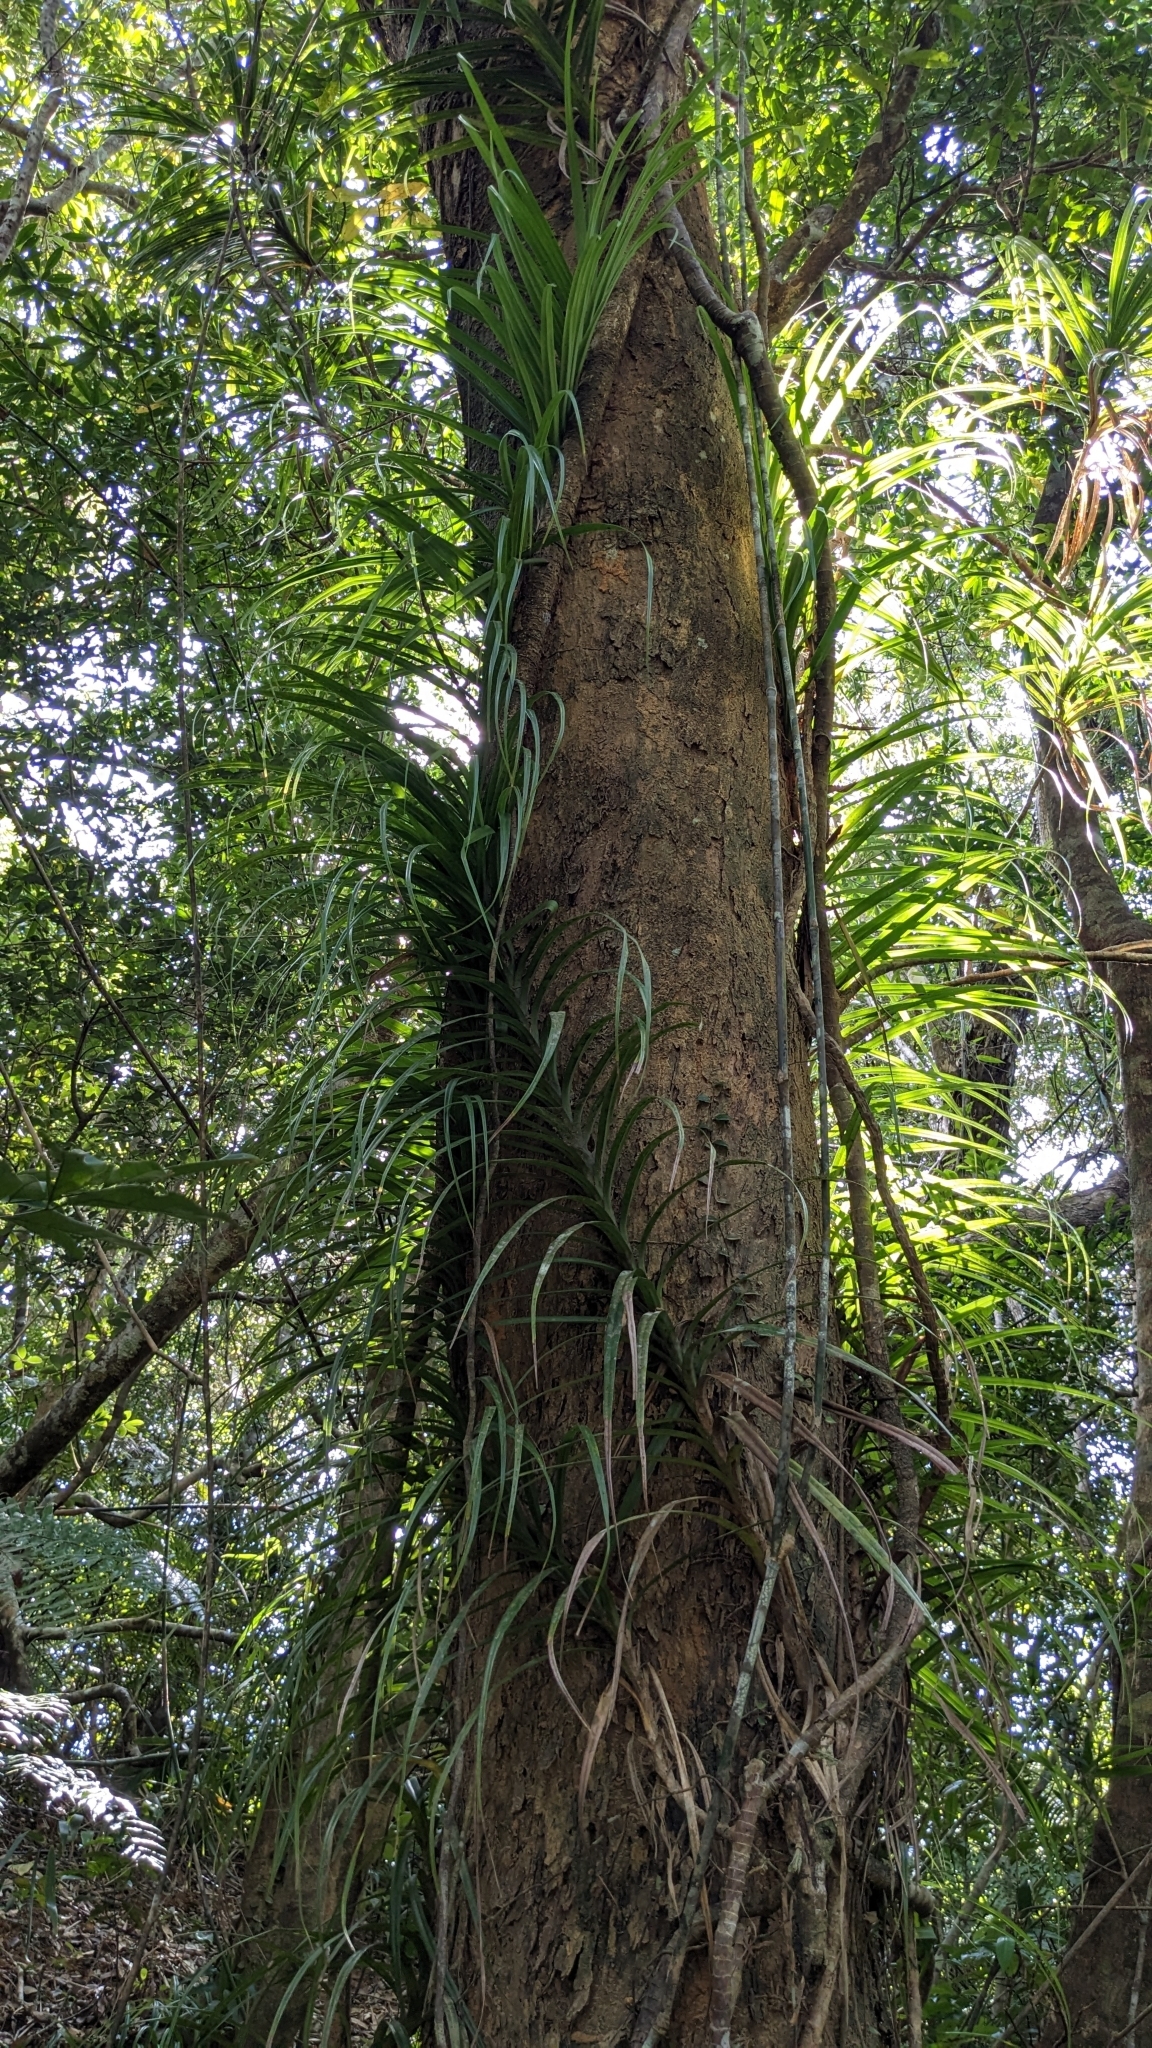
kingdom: Plantae
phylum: Tracheophyta
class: Liliopsida
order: Pandanales
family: Pandanaceae
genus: Freycinetia
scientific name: Freycinetia formosana
